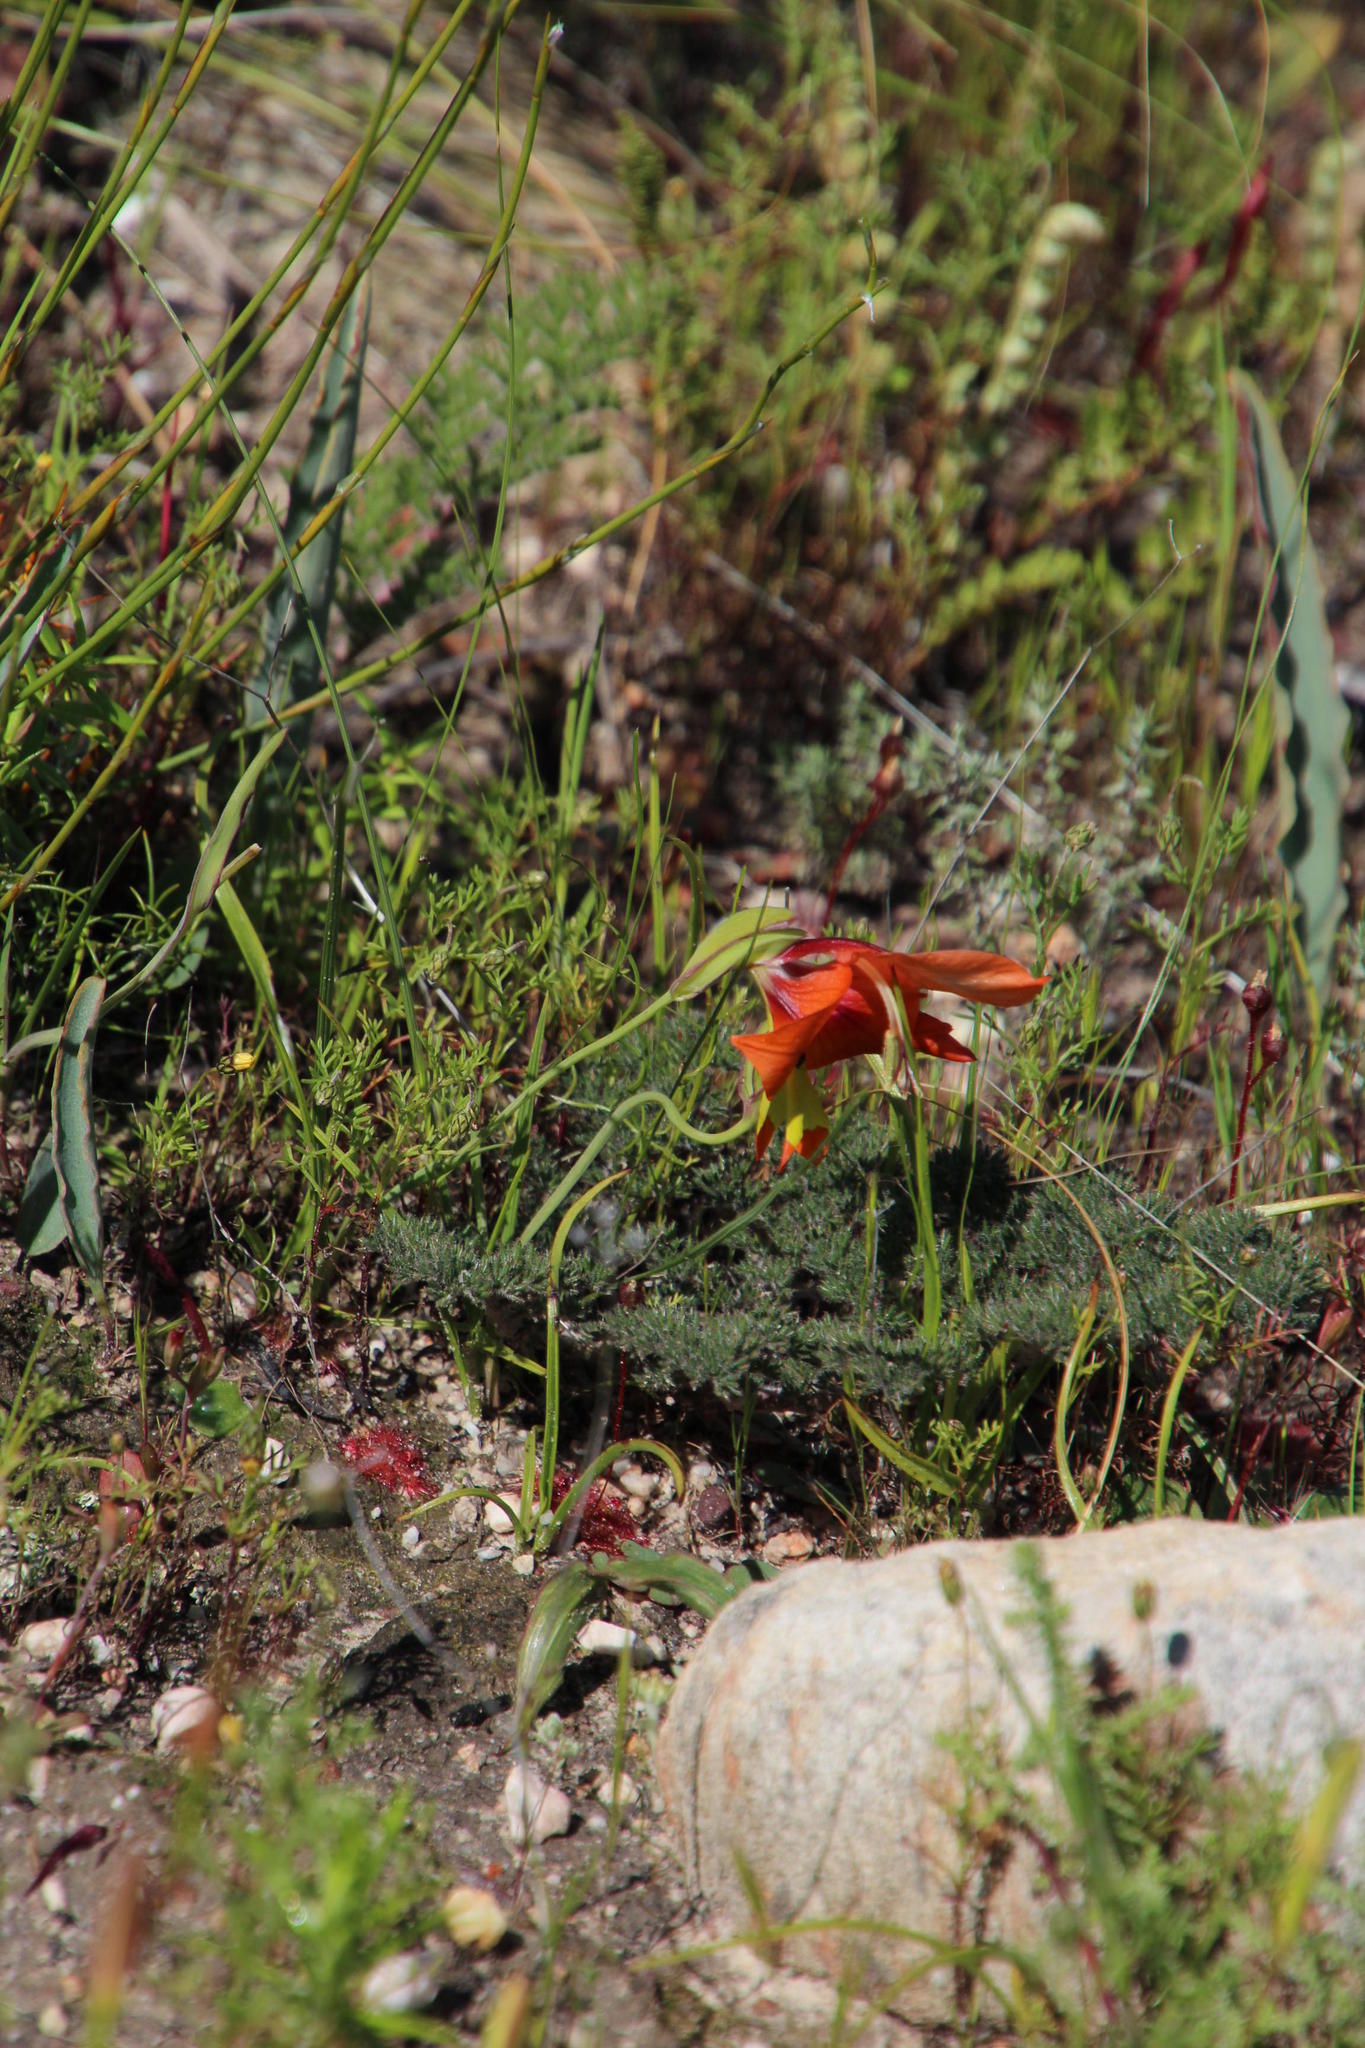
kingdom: Plantae
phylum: Tracheophyta
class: Liliopsida
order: Asparagales
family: Iridaceae
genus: Gladiolus
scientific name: Gladiolus alatus
